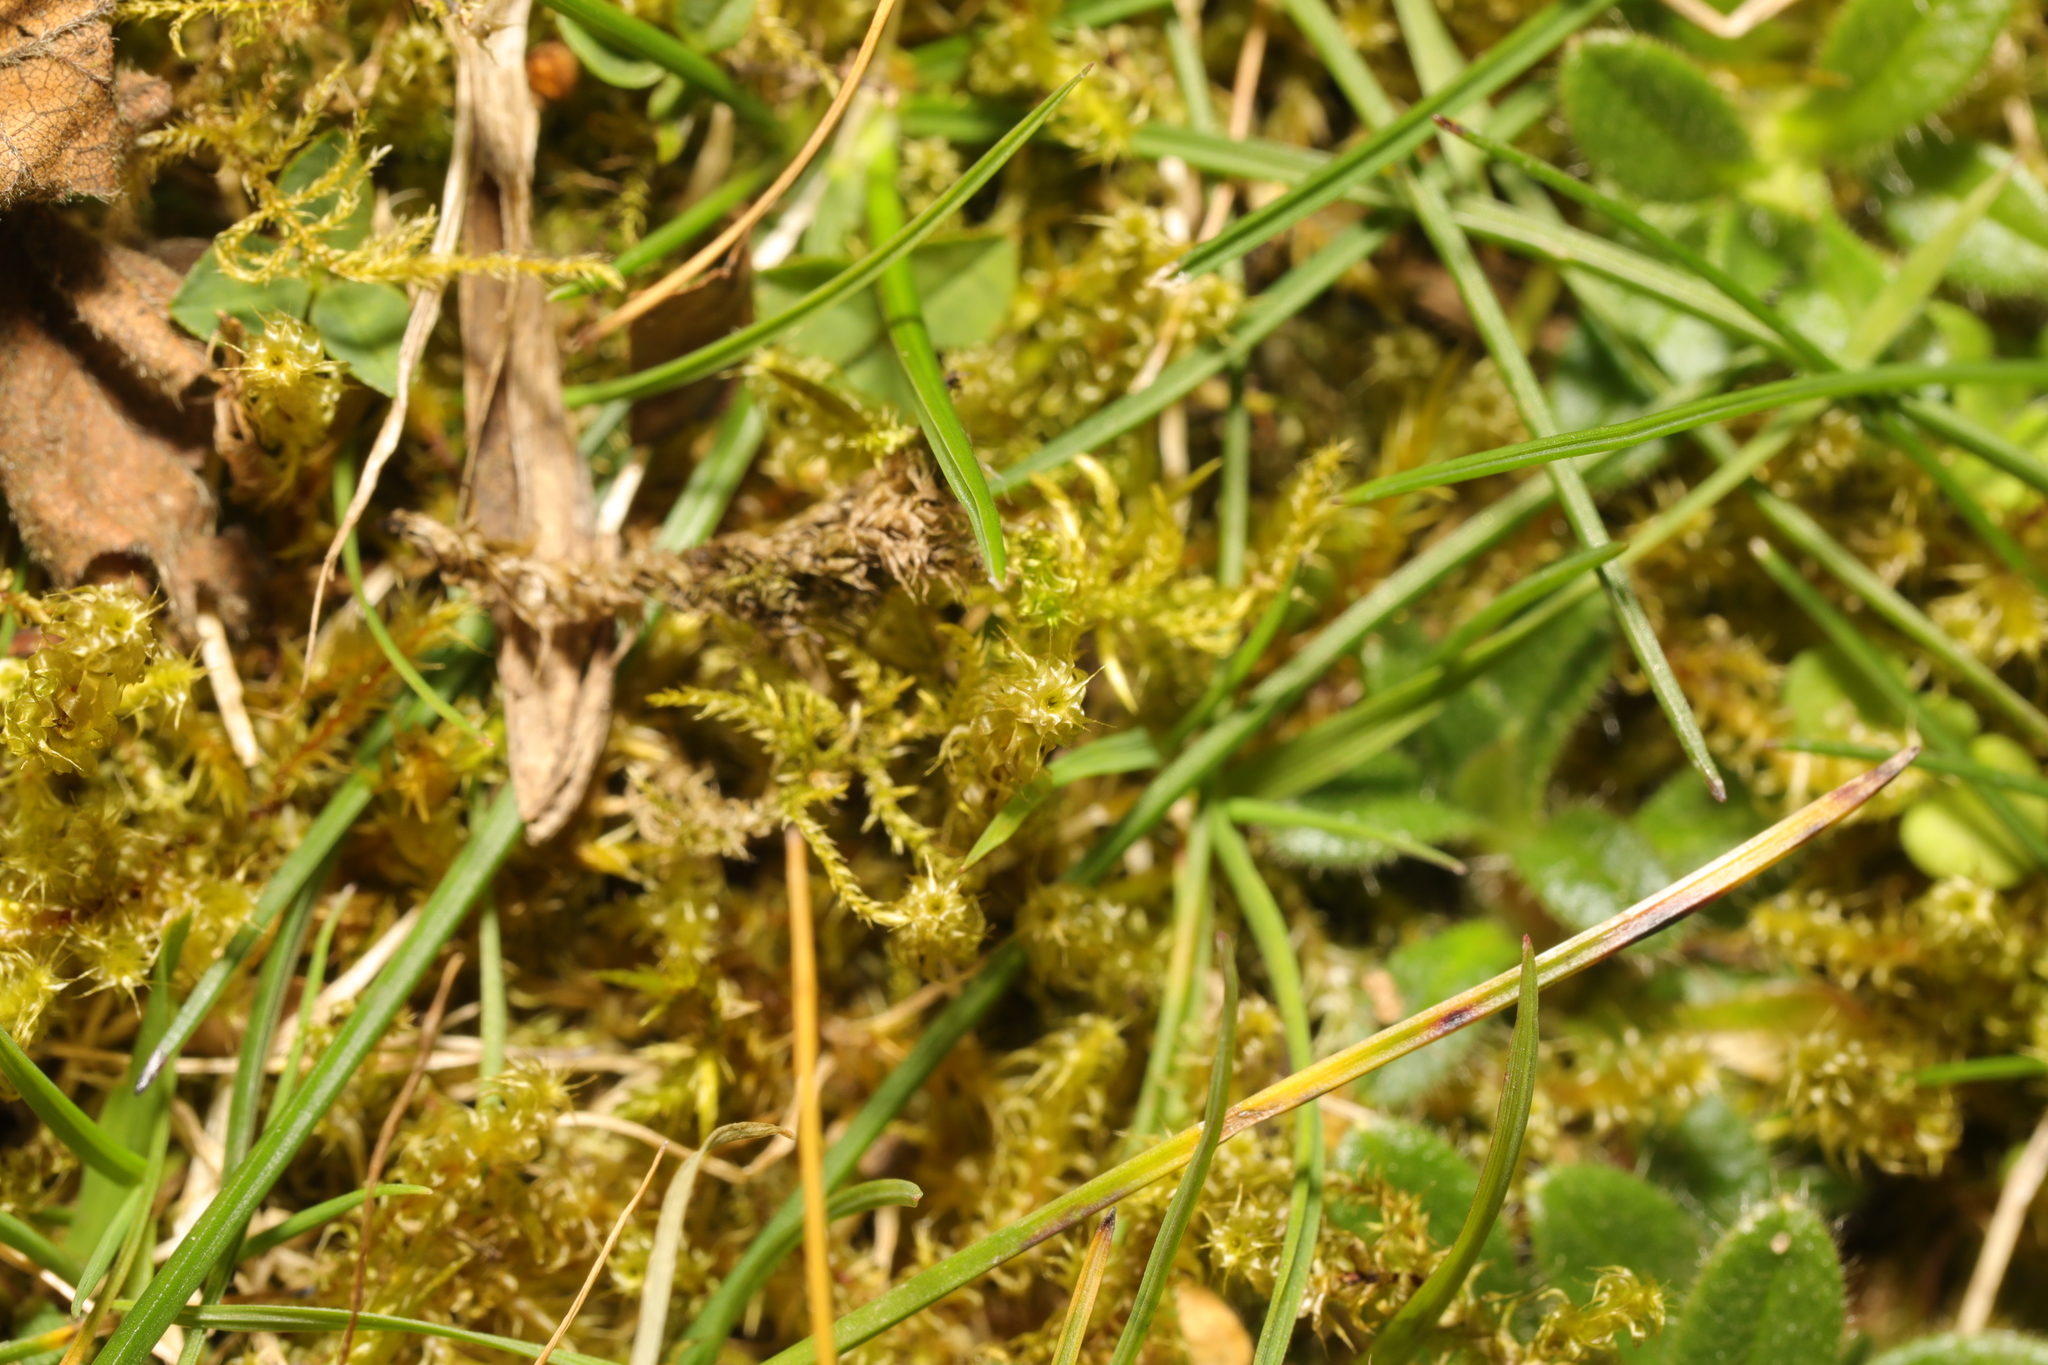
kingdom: Plantae
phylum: Bryophyta
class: Bryopsida
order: Hypnales
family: Hylocomiaceae
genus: Rhytidiadelphus
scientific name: Rhytidiadelphus squarrosus
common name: Springy turf-moss
